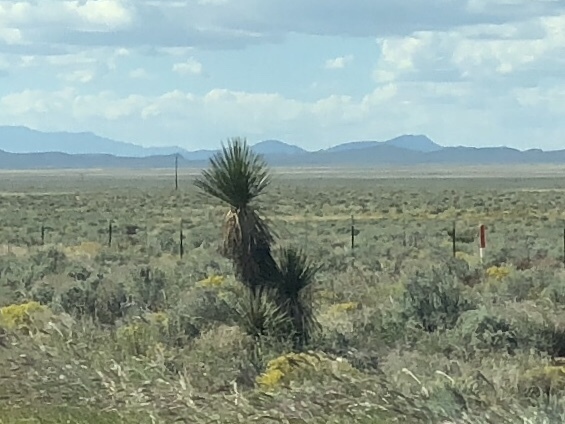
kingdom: Plantae
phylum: Tracheophyta
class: Liliopsida
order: Asparagales
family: Asparagaceae
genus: Yucca
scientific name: Yucca elata
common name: Palmella
